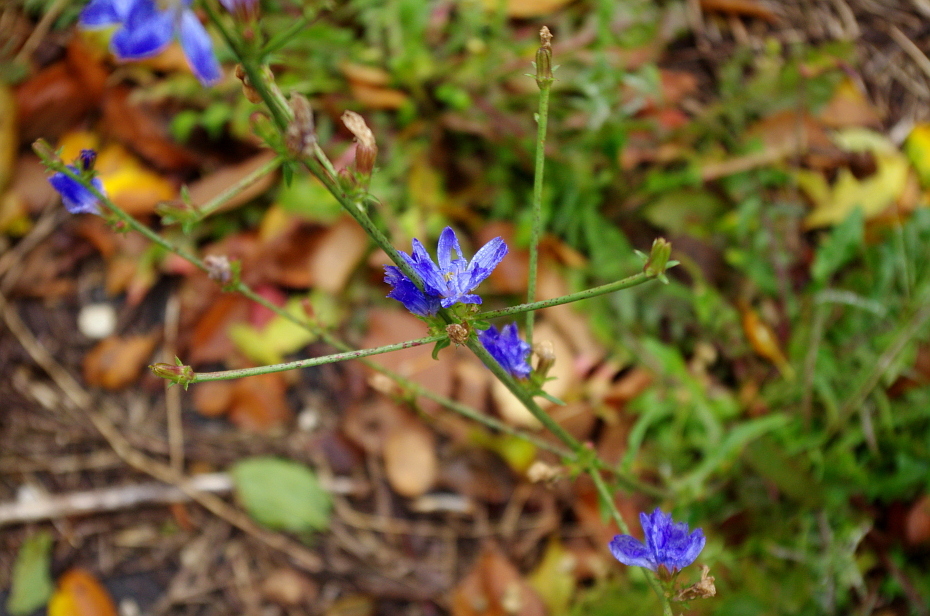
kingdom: Plantae
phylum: Tracheophyta
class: Magnoliopsida
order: Asterales
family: Asteraceae
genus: Cichorium
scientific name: Cichorium intybus
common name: Chicory
